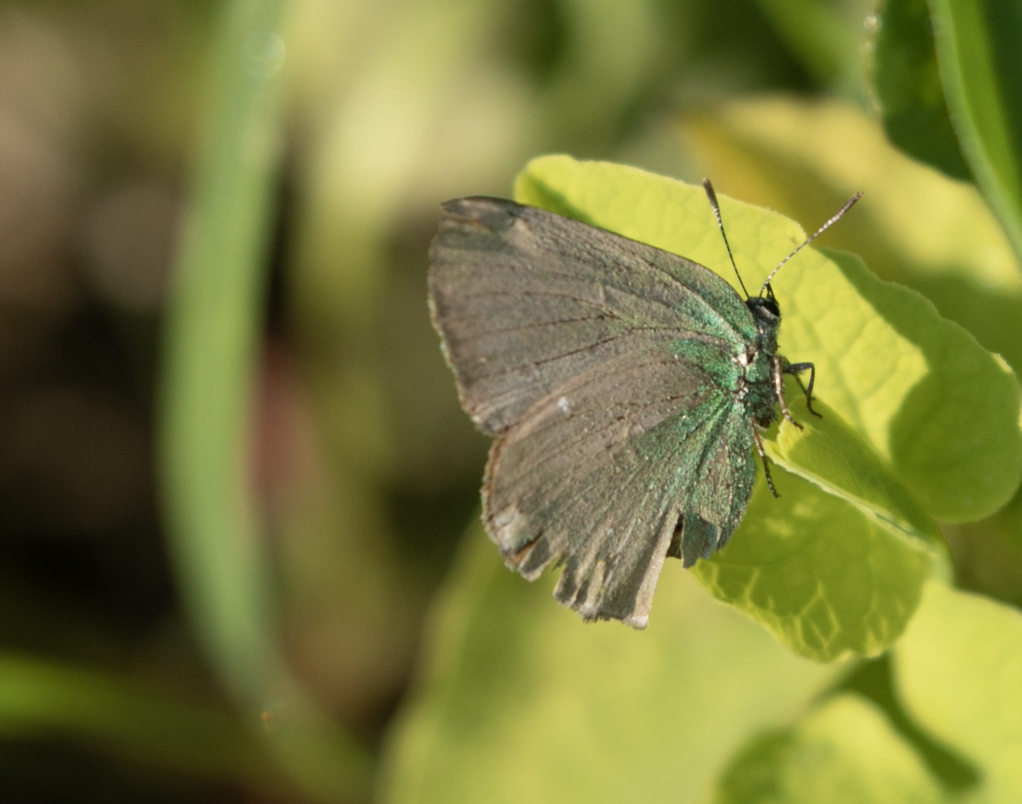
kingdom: Animalia
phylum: Arthropoda
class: Insecta
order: Lepidoptera
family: Lycaenidae
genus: Callophrys
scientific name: Callophrys rubi
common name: Green hairstreak
